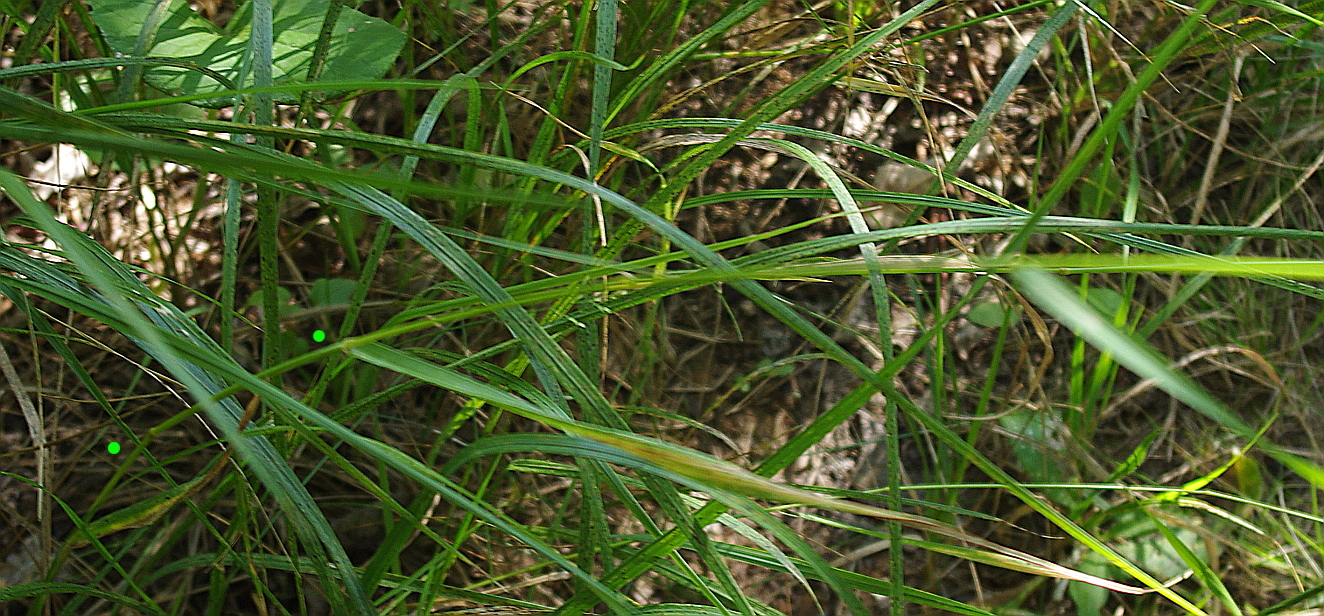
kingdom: Plantae
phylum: Tracheophyta
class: Liliopsida
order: Poales
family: Poaceae
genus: Elymus
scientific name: Elymus repens
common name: Quackgrass
